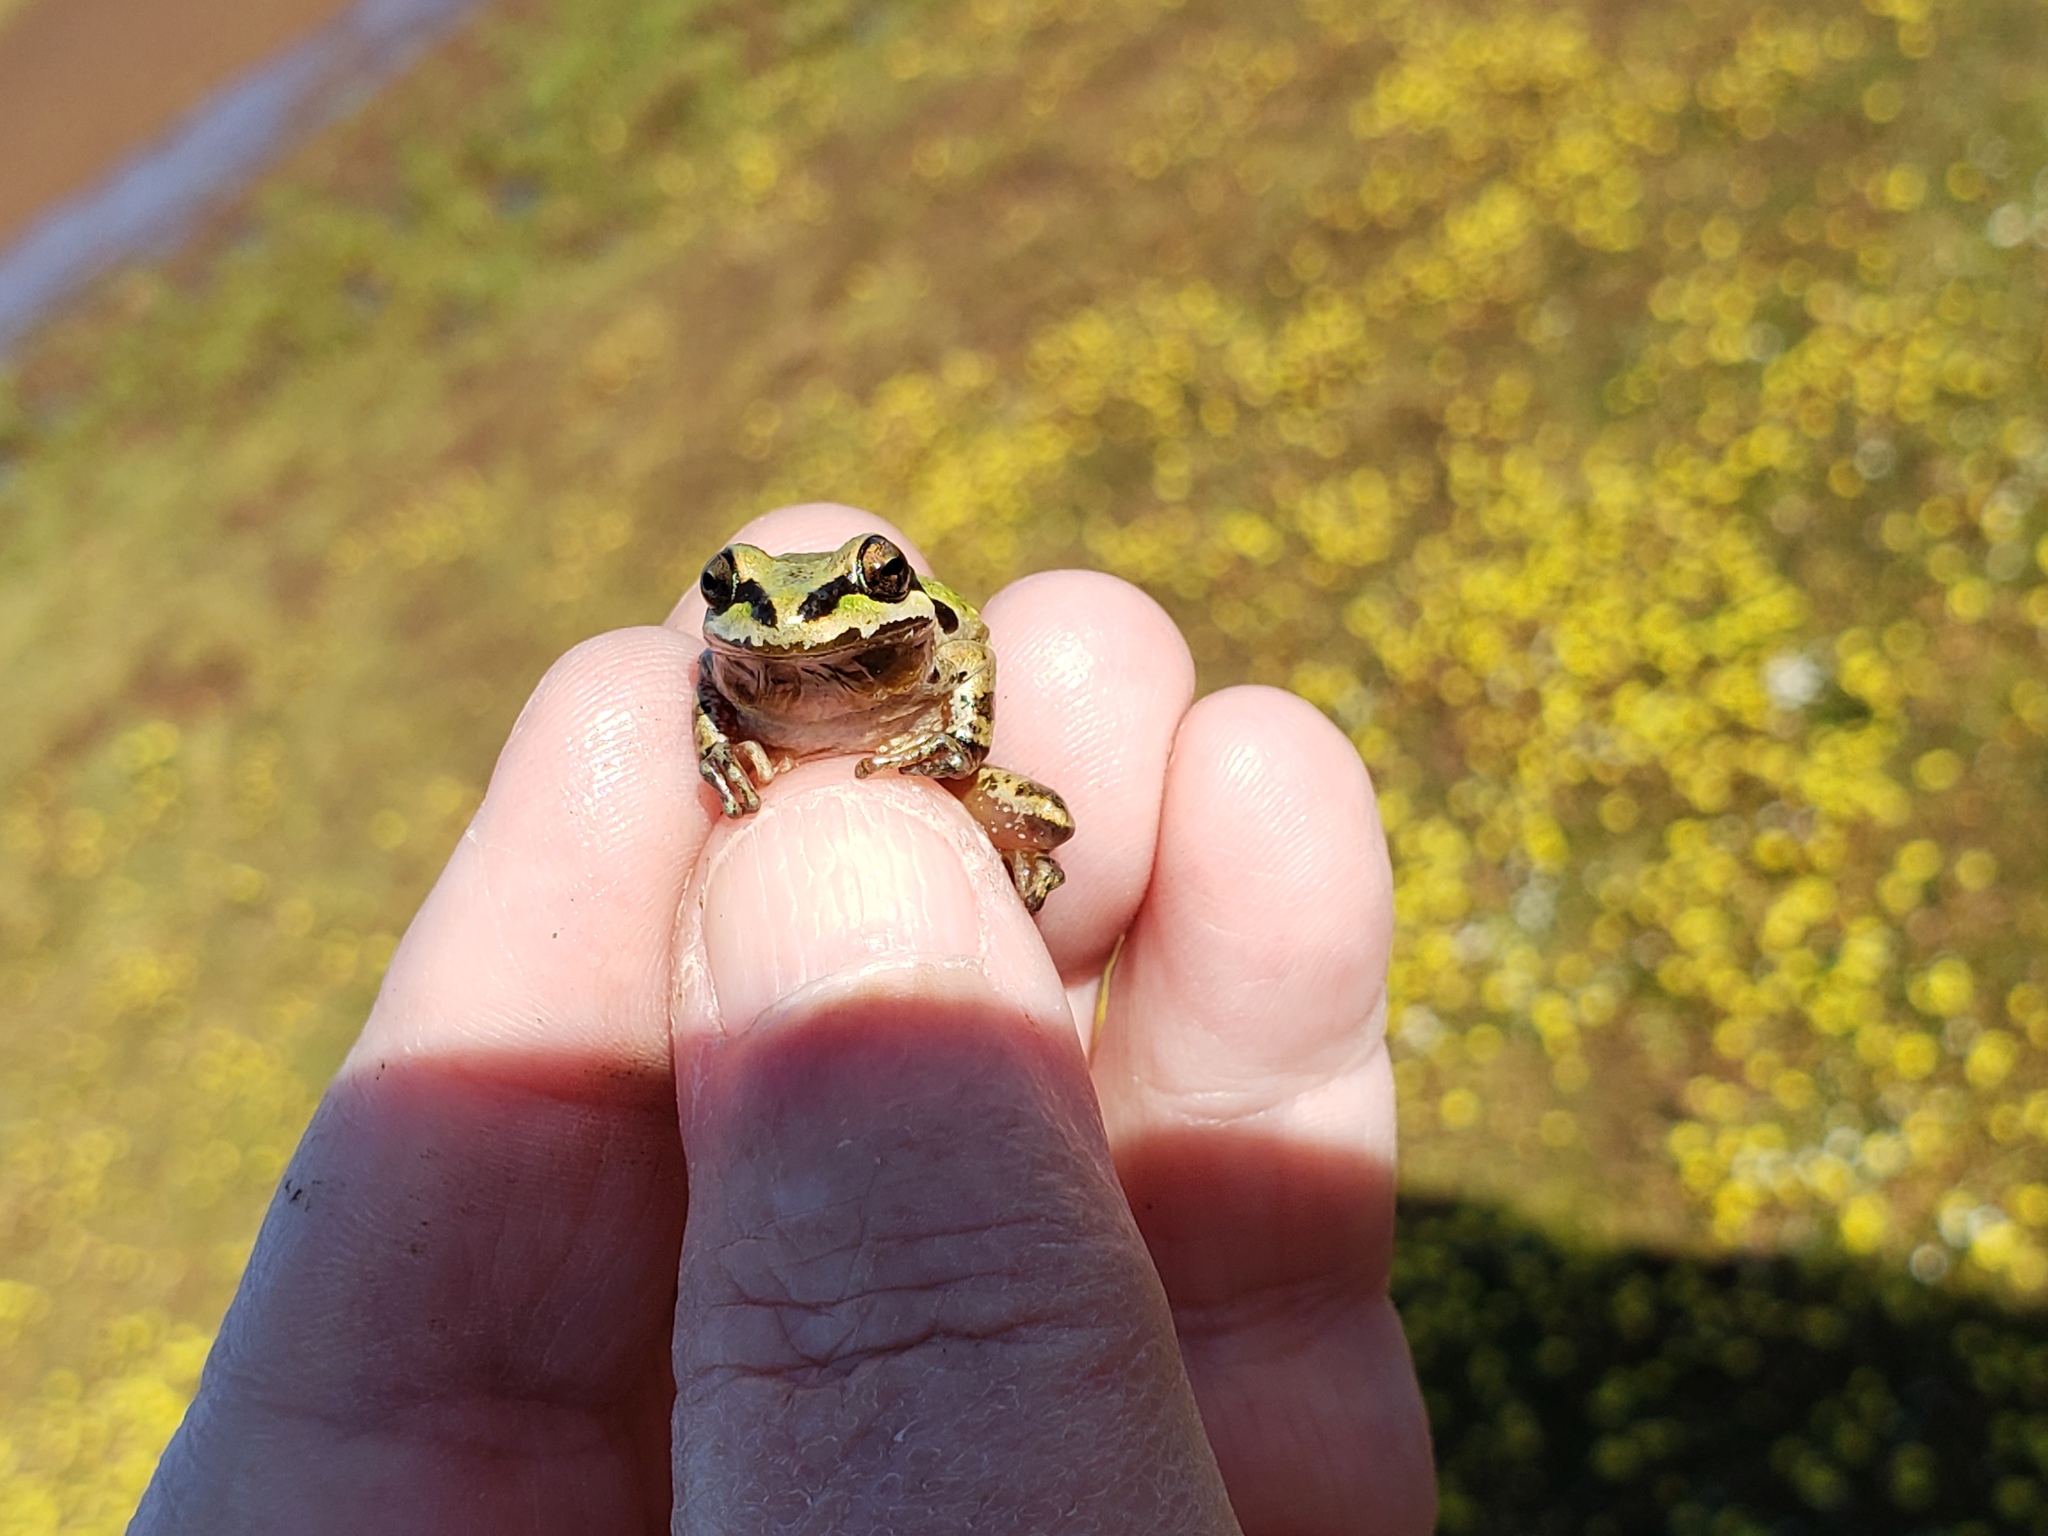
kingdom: Animalia
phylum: Chordata
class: Amphibia
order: Anura
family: Hylidae
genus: Pseudacris
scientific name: Pseudacris regilla
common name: Pacific chorus frog
